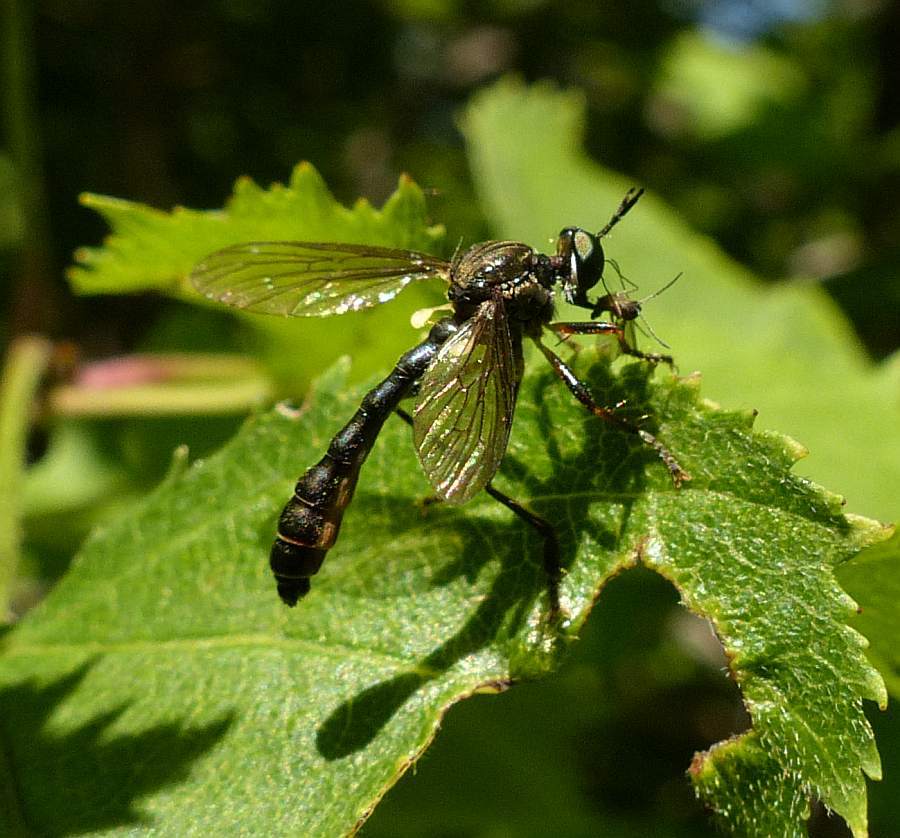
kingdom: Animalia
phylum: Arthropoda
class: Insecta
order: Diptera
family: Asilidae
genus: Dioctria
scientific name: Dioctria hyalipennis
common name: Stripe-legged robberfly
